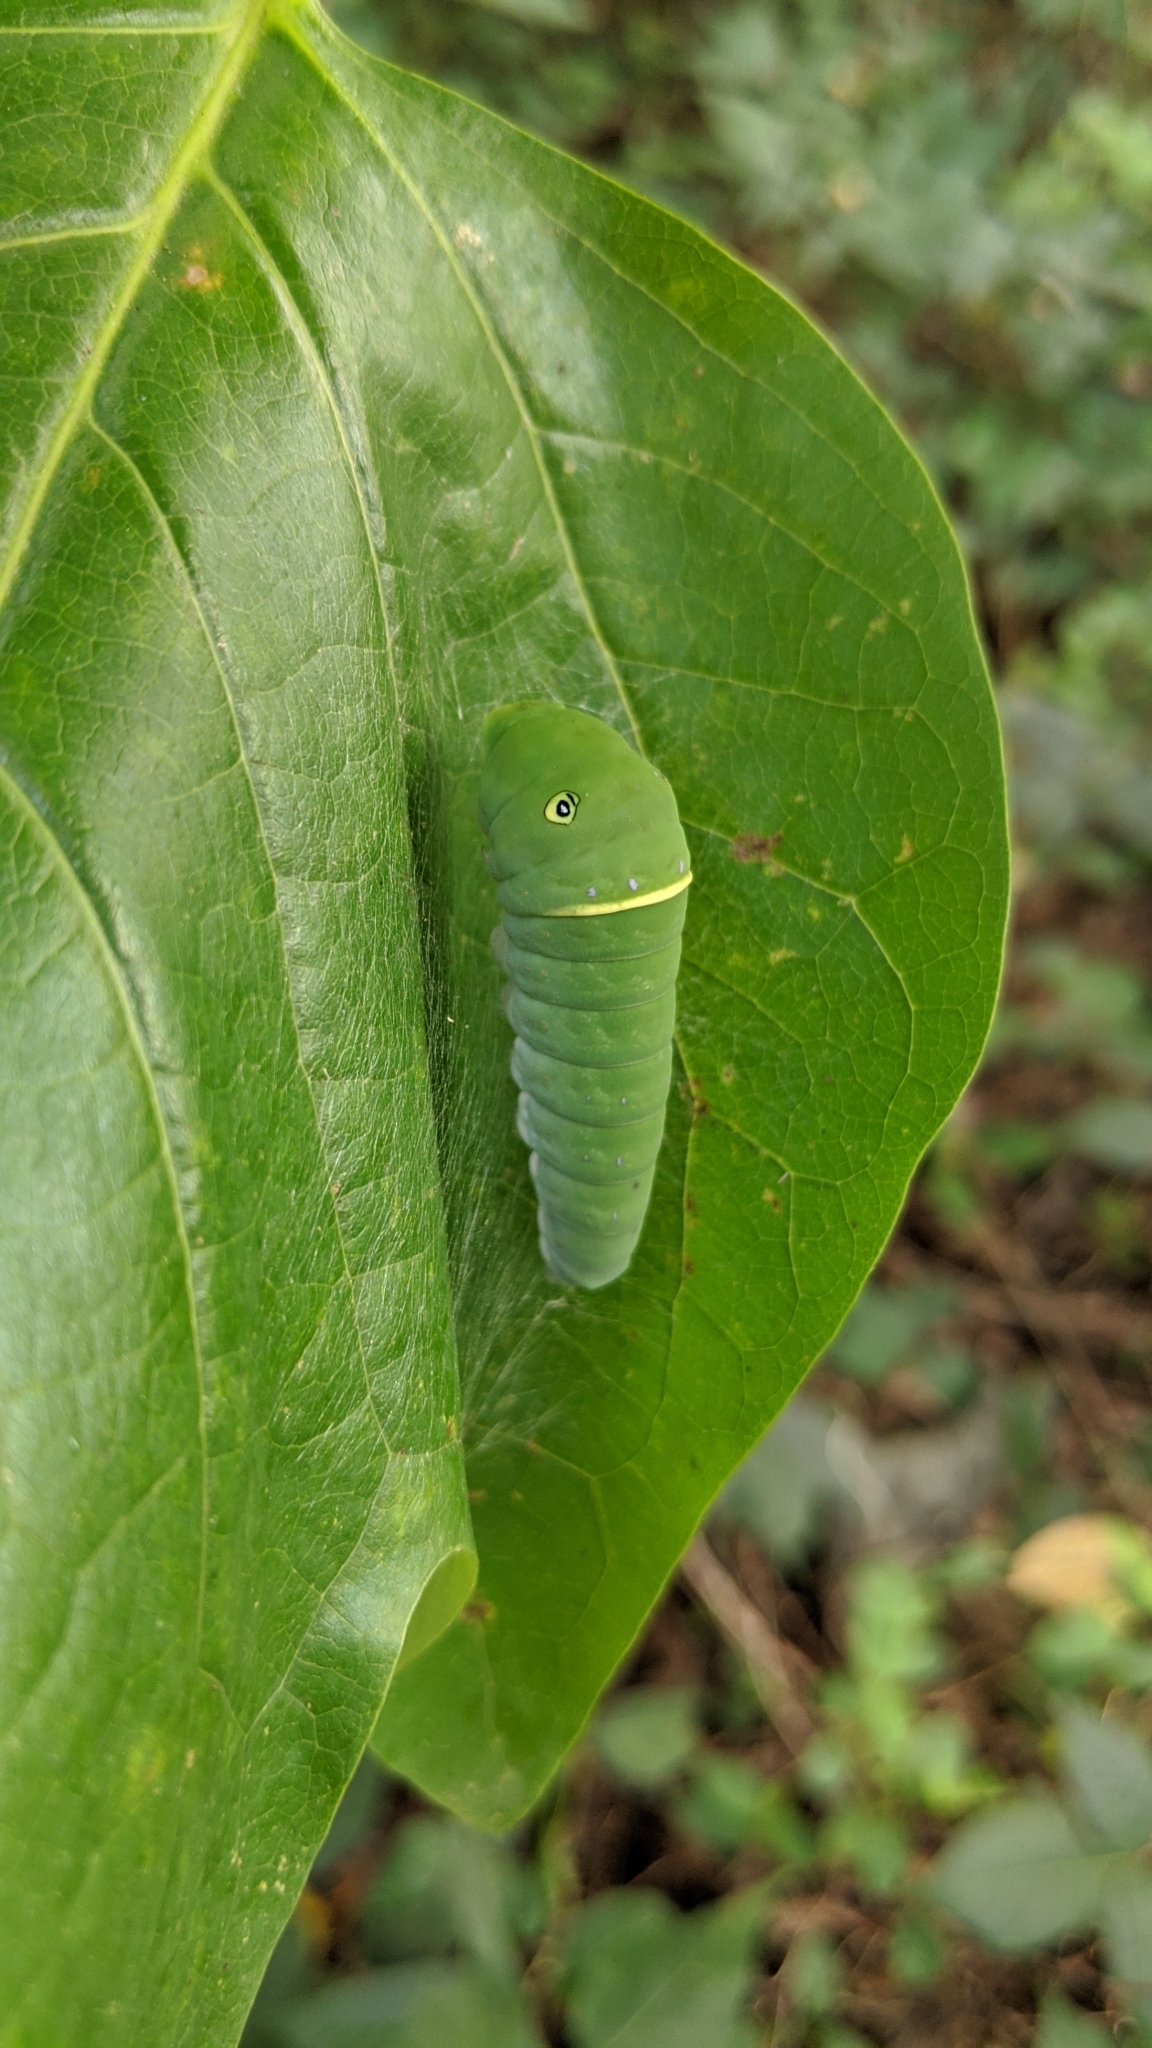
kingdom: Animalia
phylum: Arthropoda
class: Insecta
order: Lepidoptera
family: Papilionidae
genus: Papilio
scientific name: Papilio glaucus
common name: Tiger swallowtail
